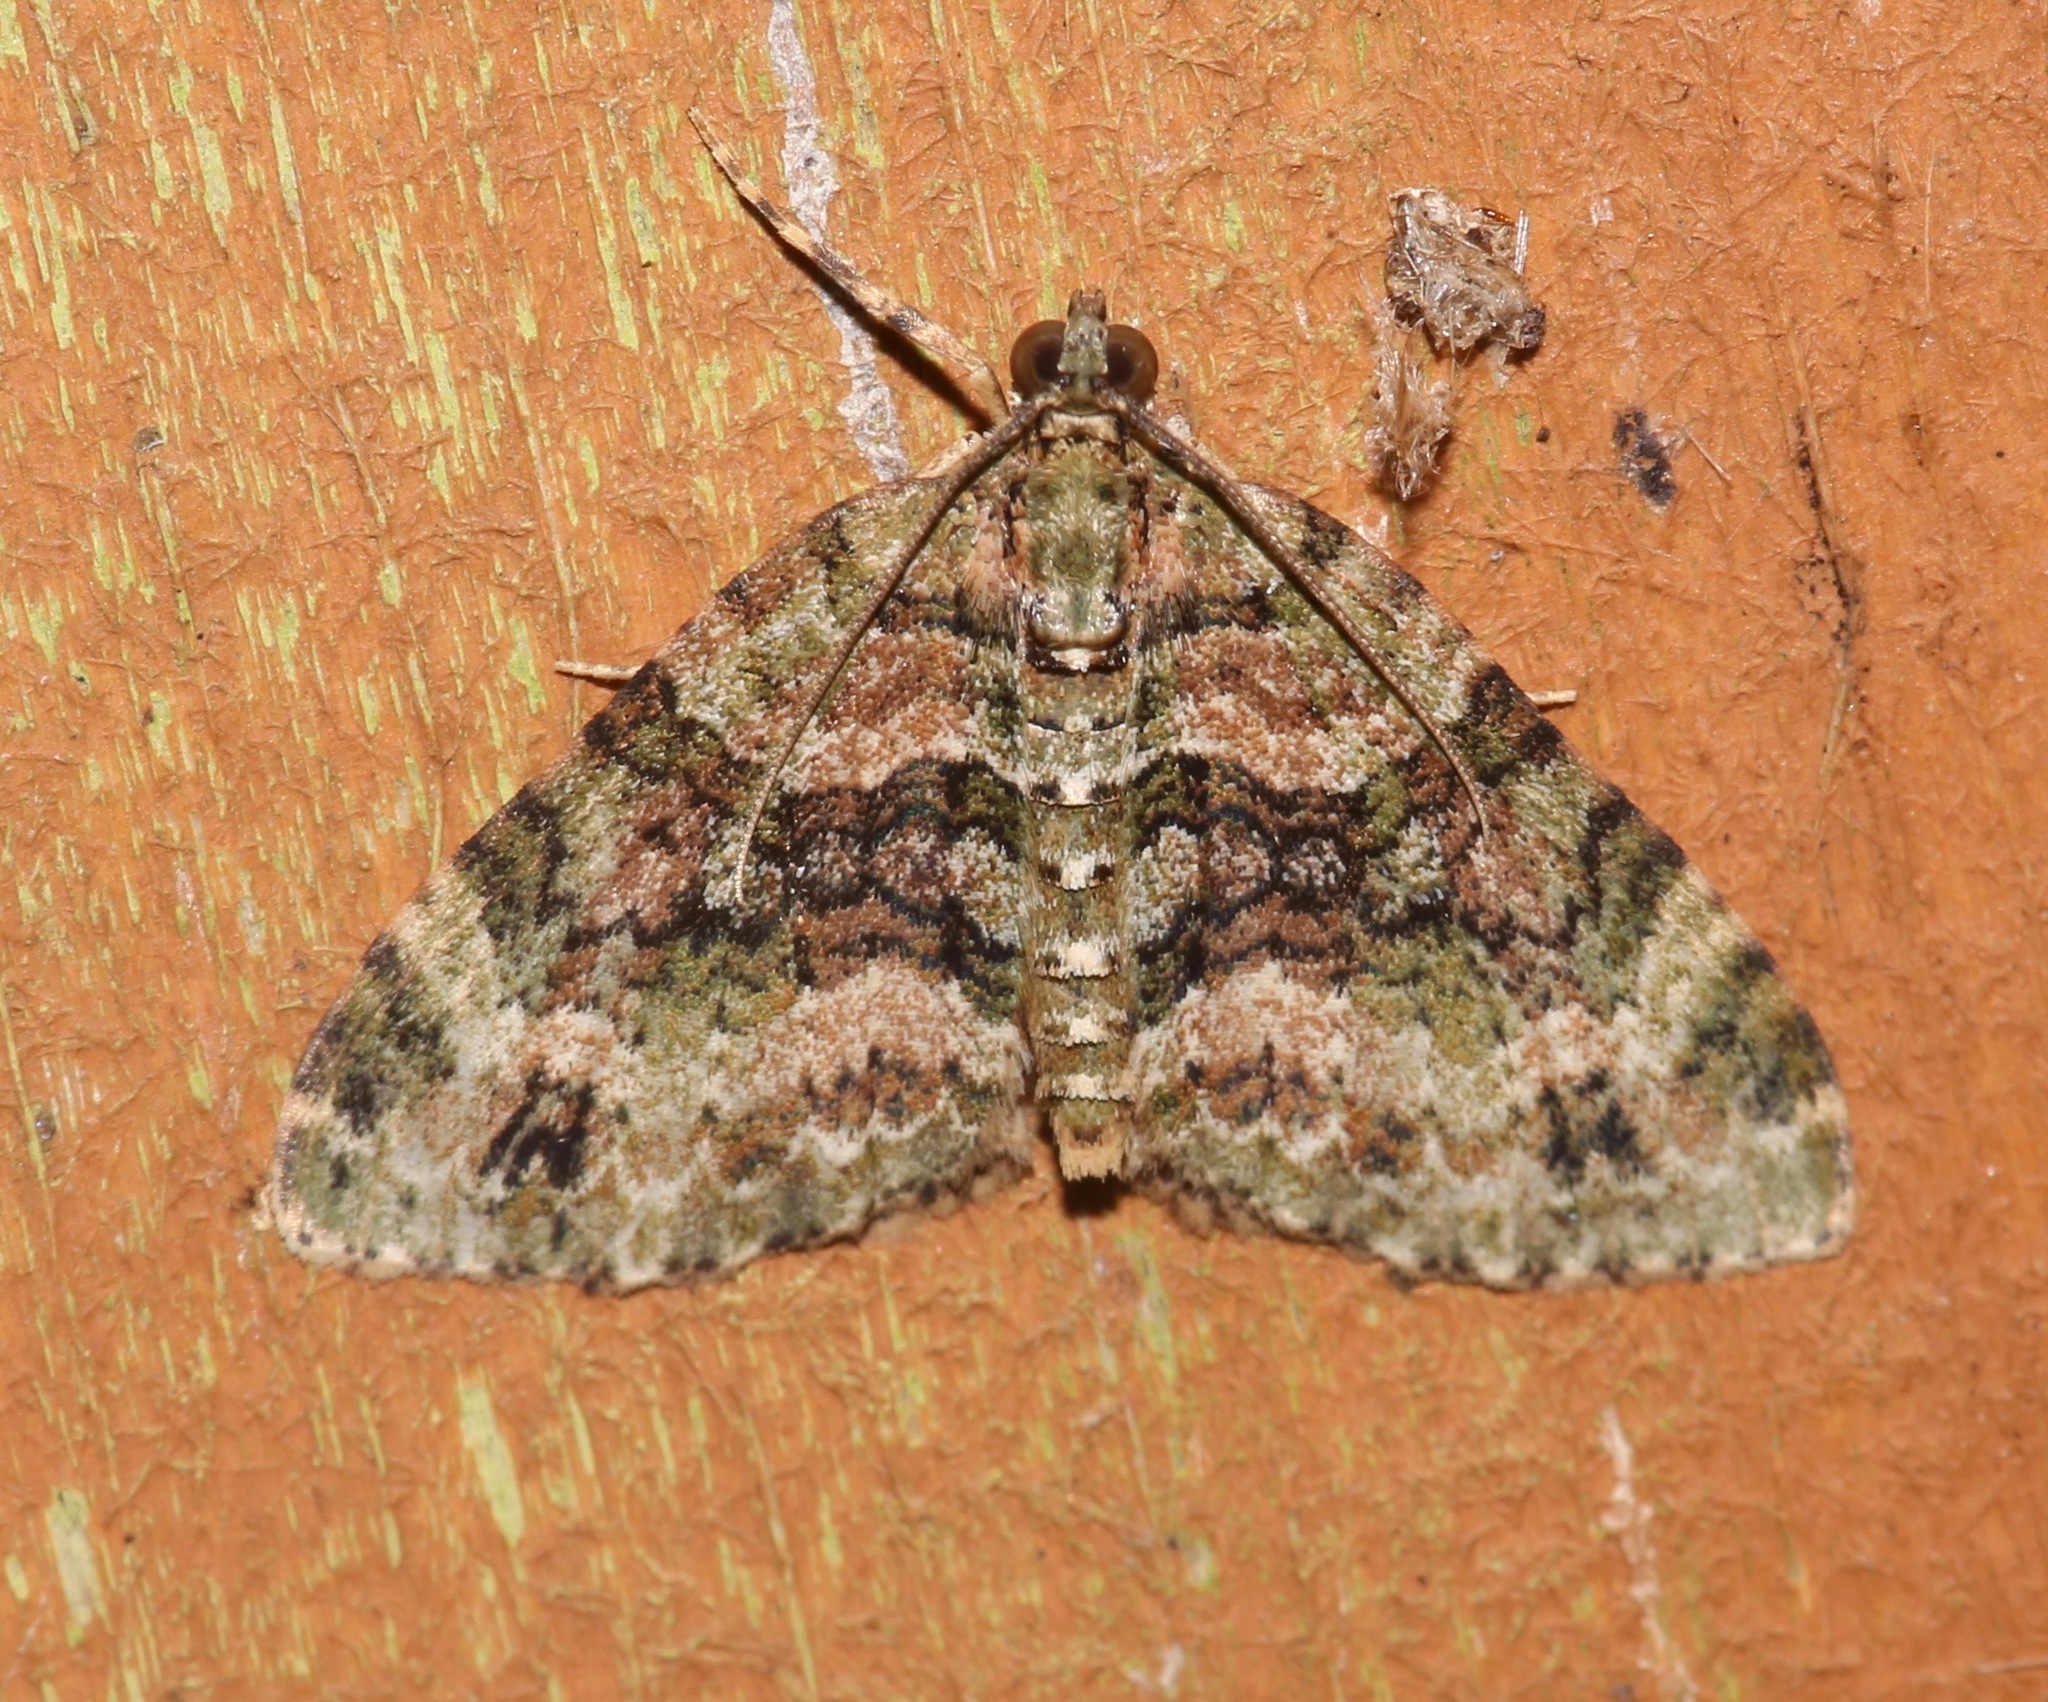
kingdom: Animalia
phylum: Arthropoda
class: Insecta
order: Lepidoptera
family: Geometridae
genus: Hammaptera
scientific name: Hammaptera parinotata
